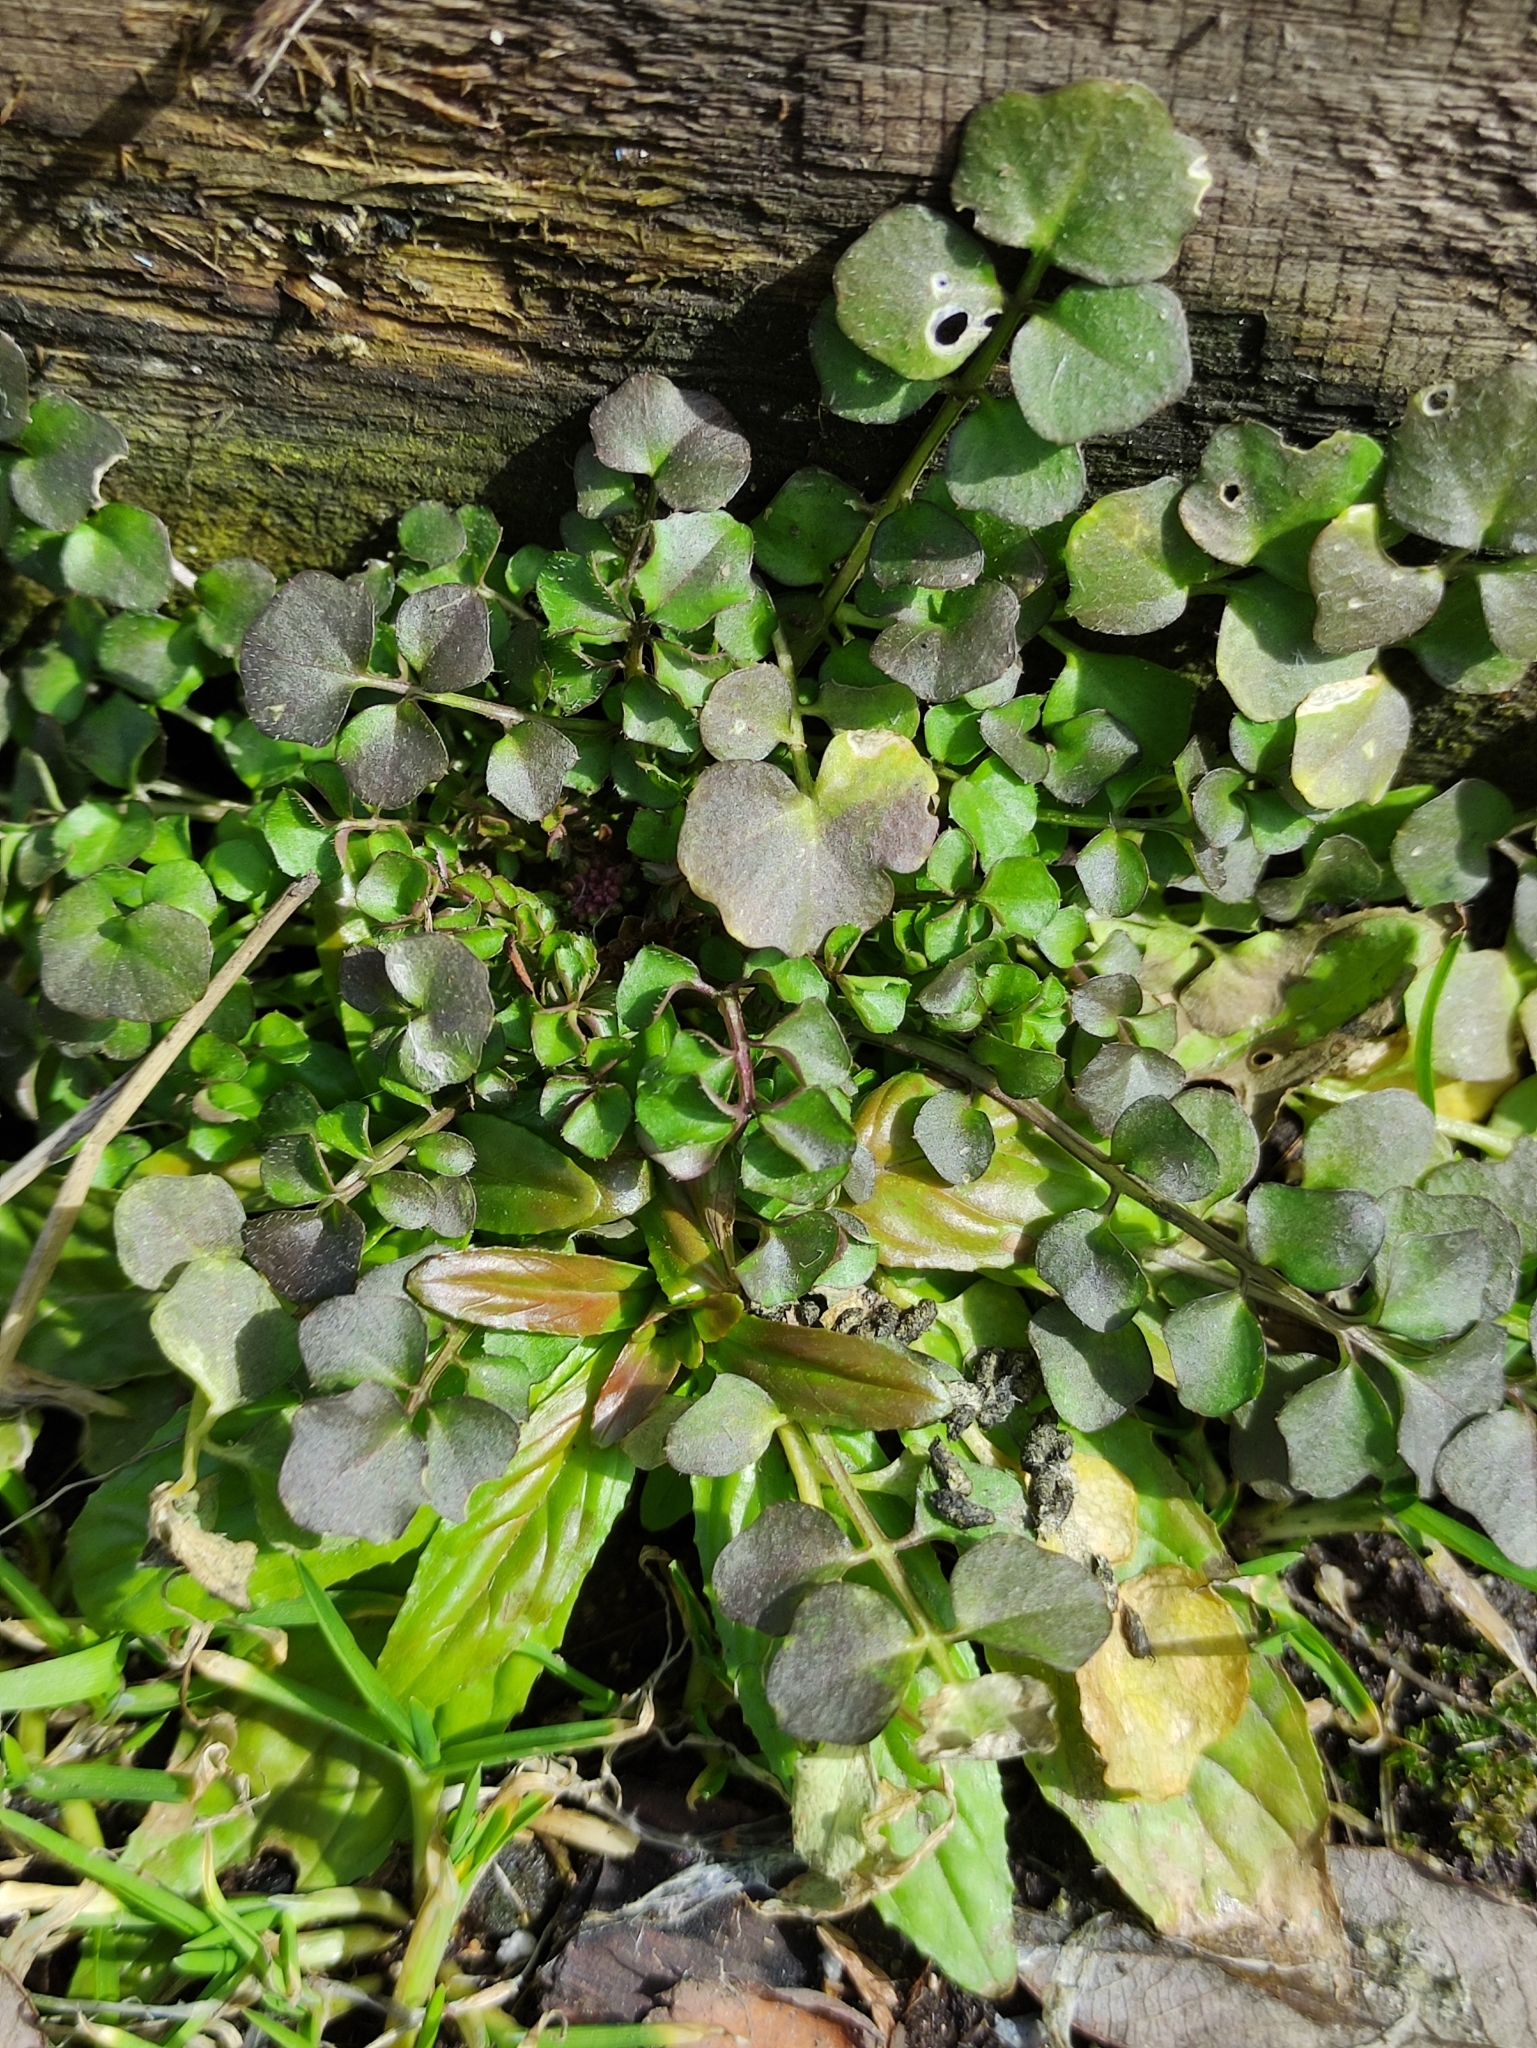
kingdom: Plantae
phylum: Tracheophyta
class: Magnoliopsida
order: Brassicales
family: Brassicaceae
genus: Cardamine
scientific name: Cardamine hirsuta
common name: Hairy bittercress
